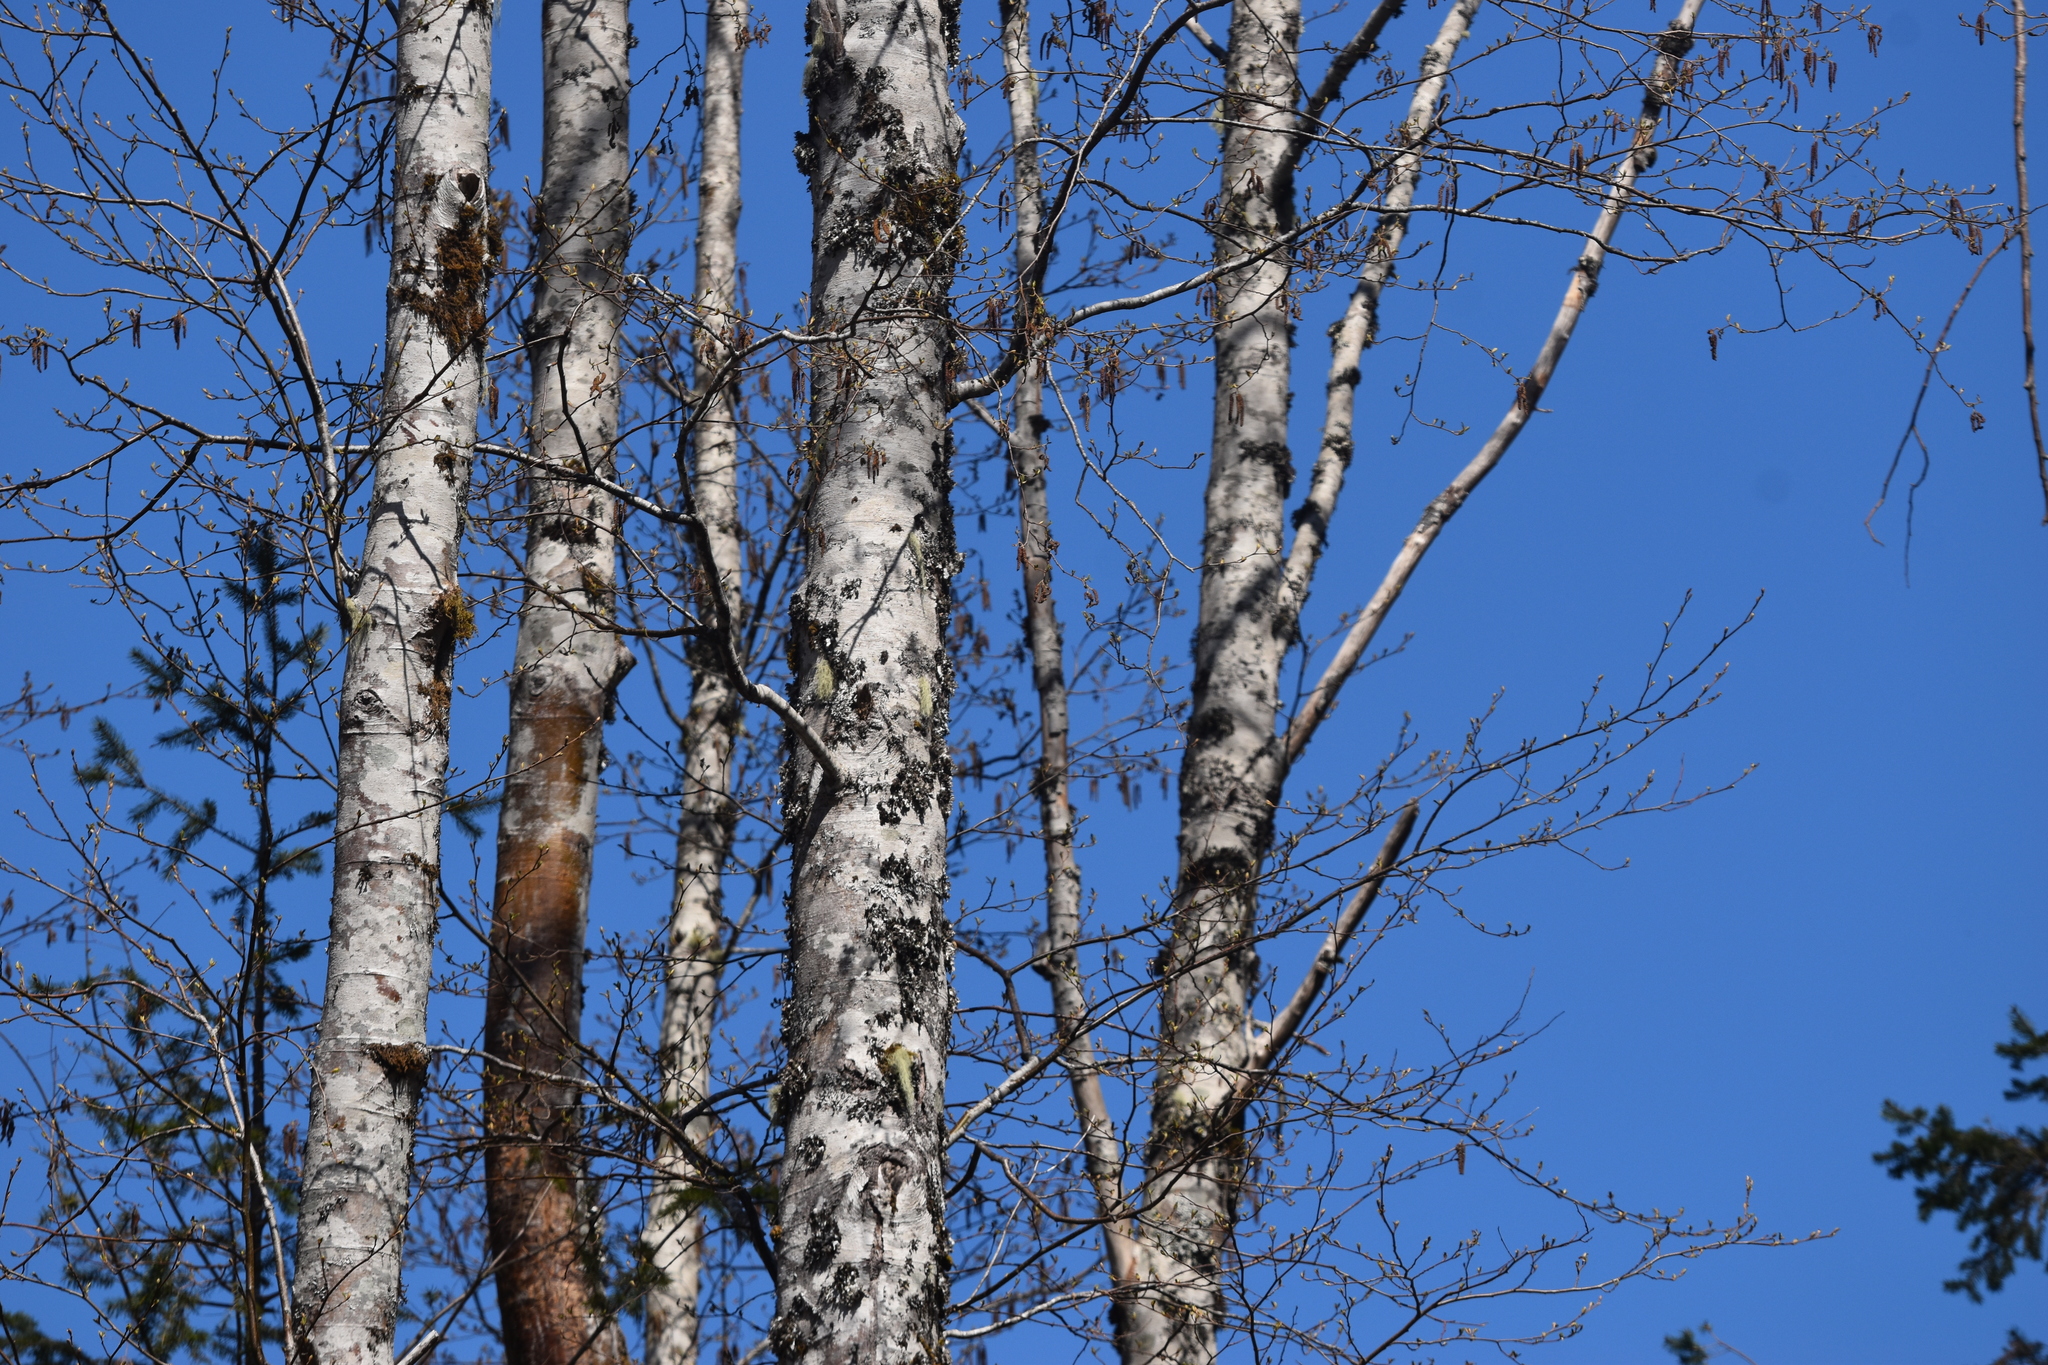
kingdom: Plantae
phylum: Tracheophyta
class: Magnoliopsida
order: Malpighiales
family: Salicaceae
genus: Populus
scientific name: Populus tremuloides
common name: Quaking aspen
